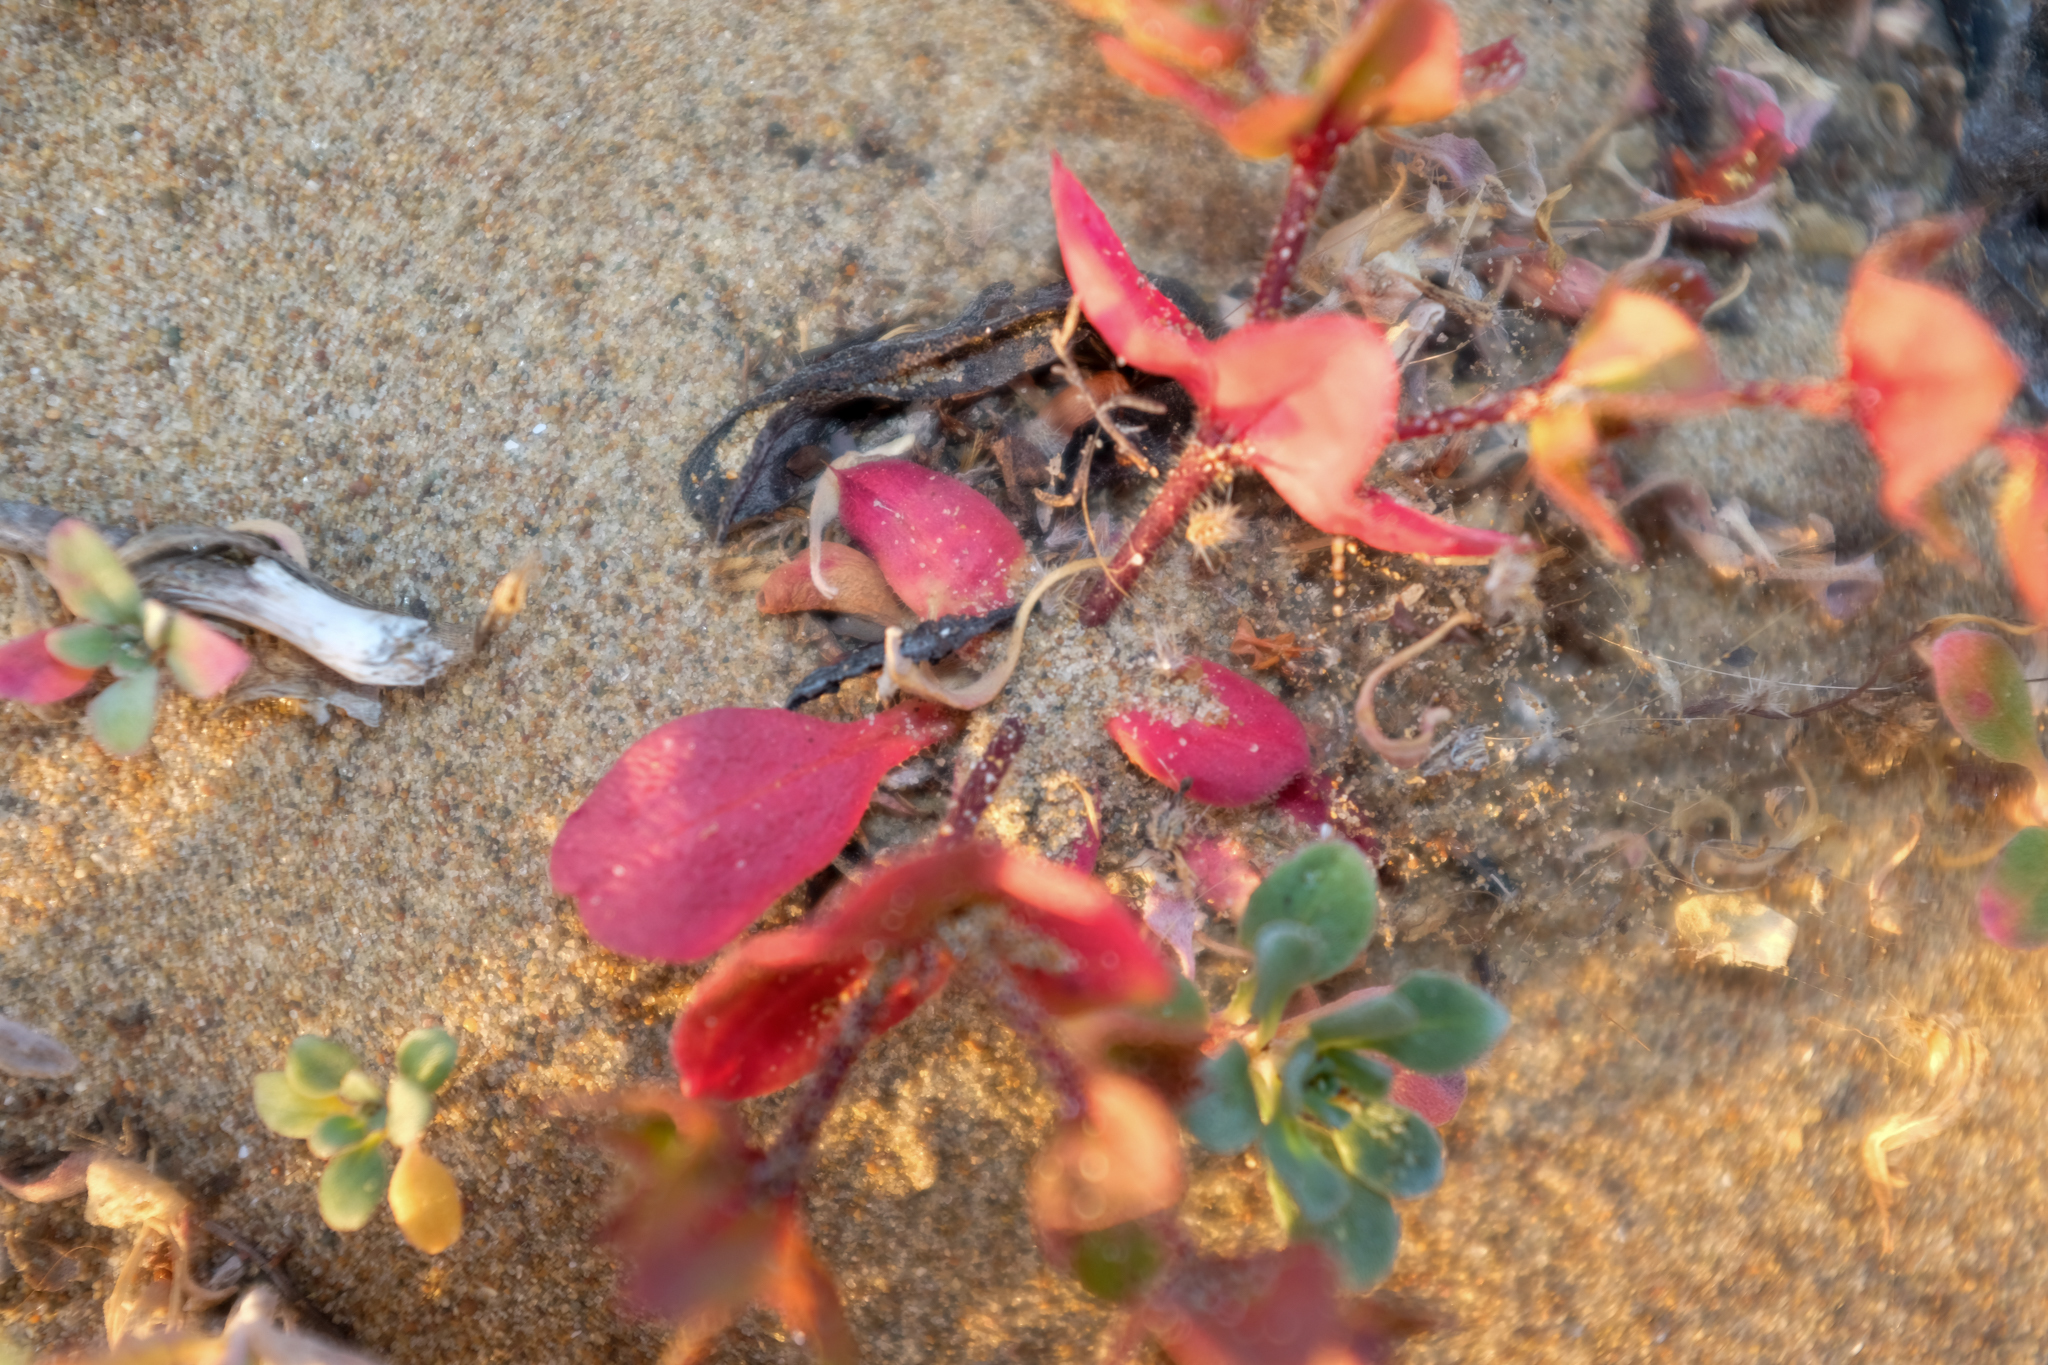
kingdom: Plantae
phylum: Tracheophyta
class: Magnoliopsida
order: Caryophyllales
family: Polygonaceae
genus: Mucronea
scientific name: Mucronea californica
